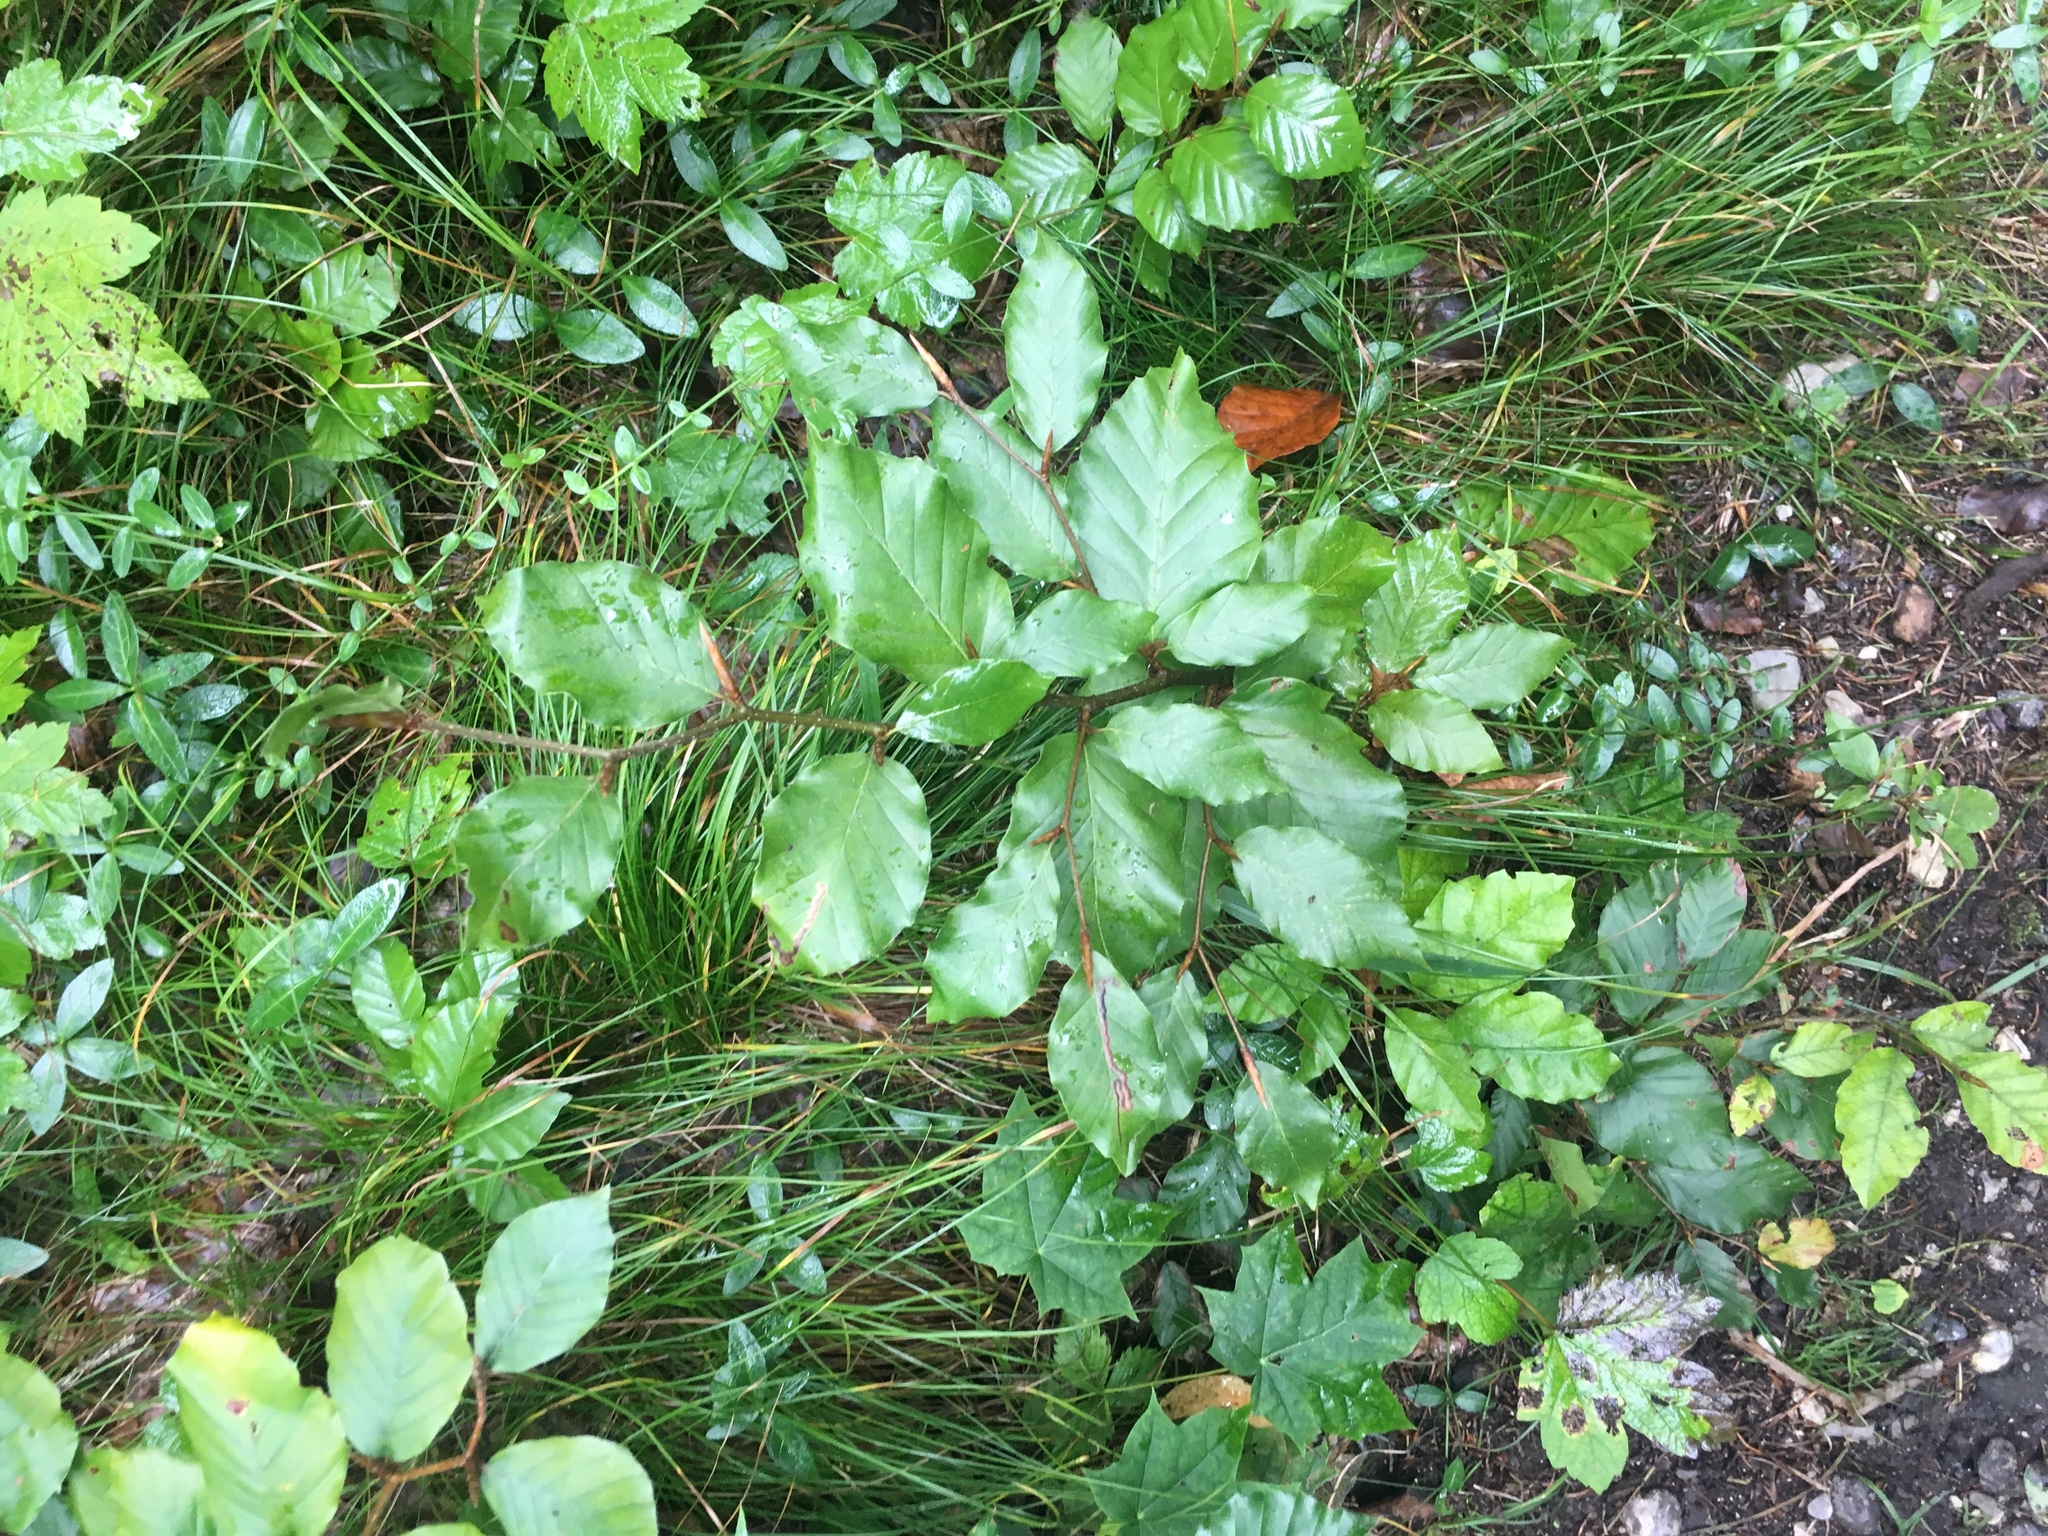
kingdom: Plantae
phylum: Tracheophyta
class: Magnoliopsida
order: Fagales
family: Fagaceae
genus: Fagus
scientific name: Fagus sylvatica
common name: Beech
